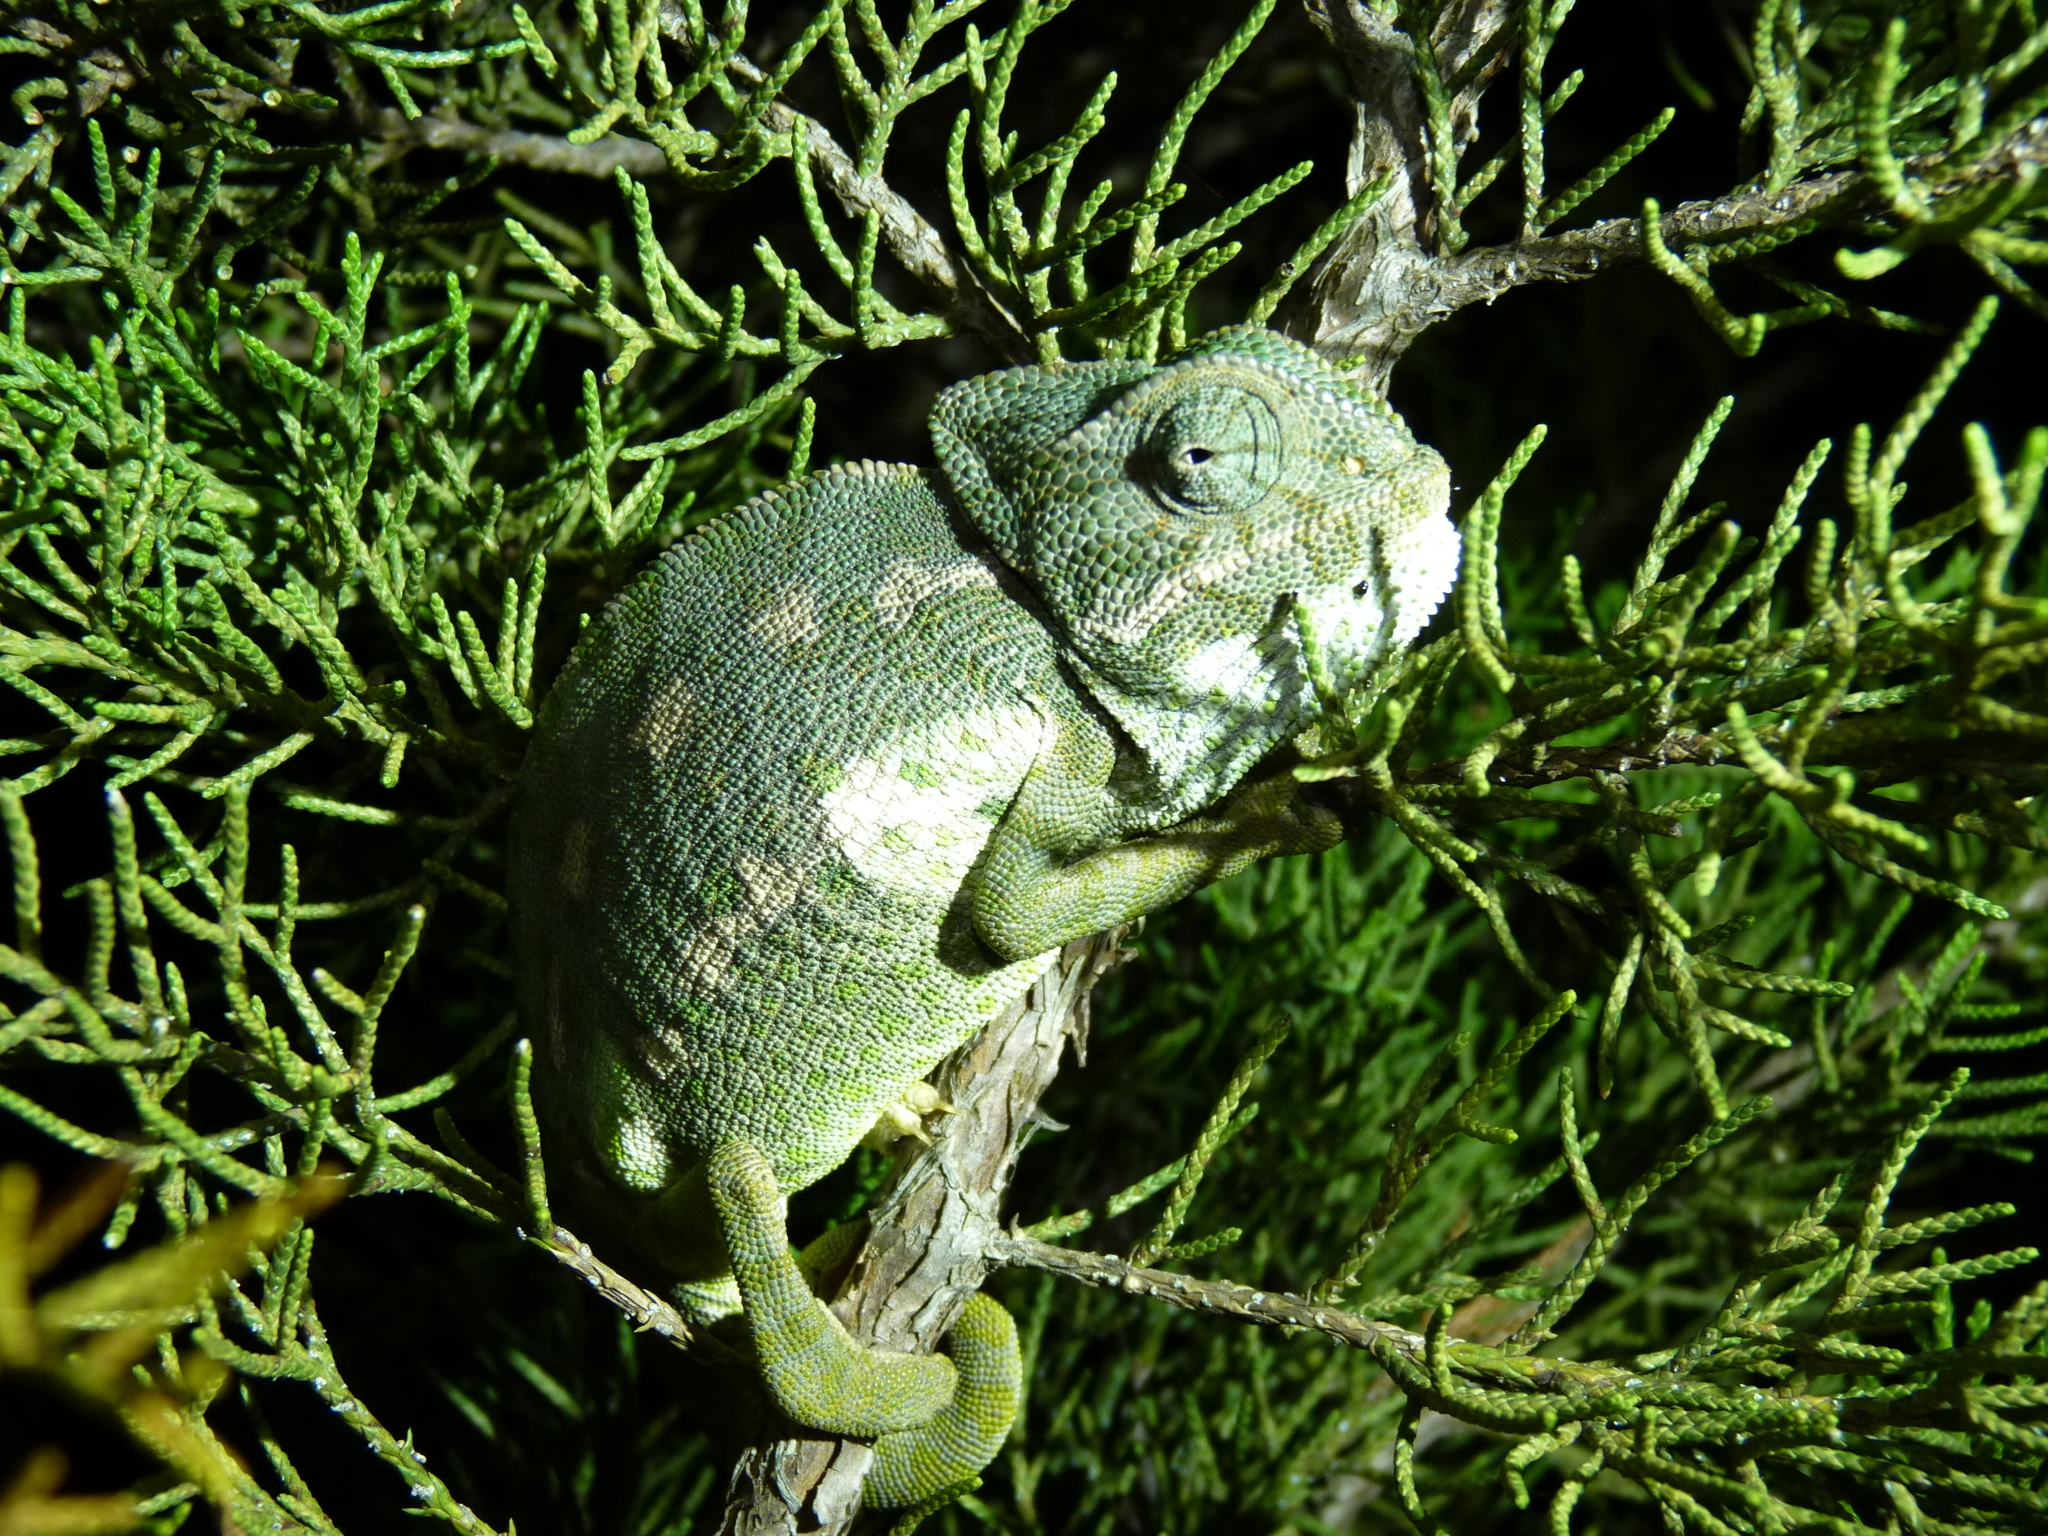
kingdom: Animalia
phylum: Chordata
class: Squamata
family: Chamaeleonidae
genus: Chamaeleo
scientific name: Chamaeleo chamaeleon
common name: Mediterranean chameleon
